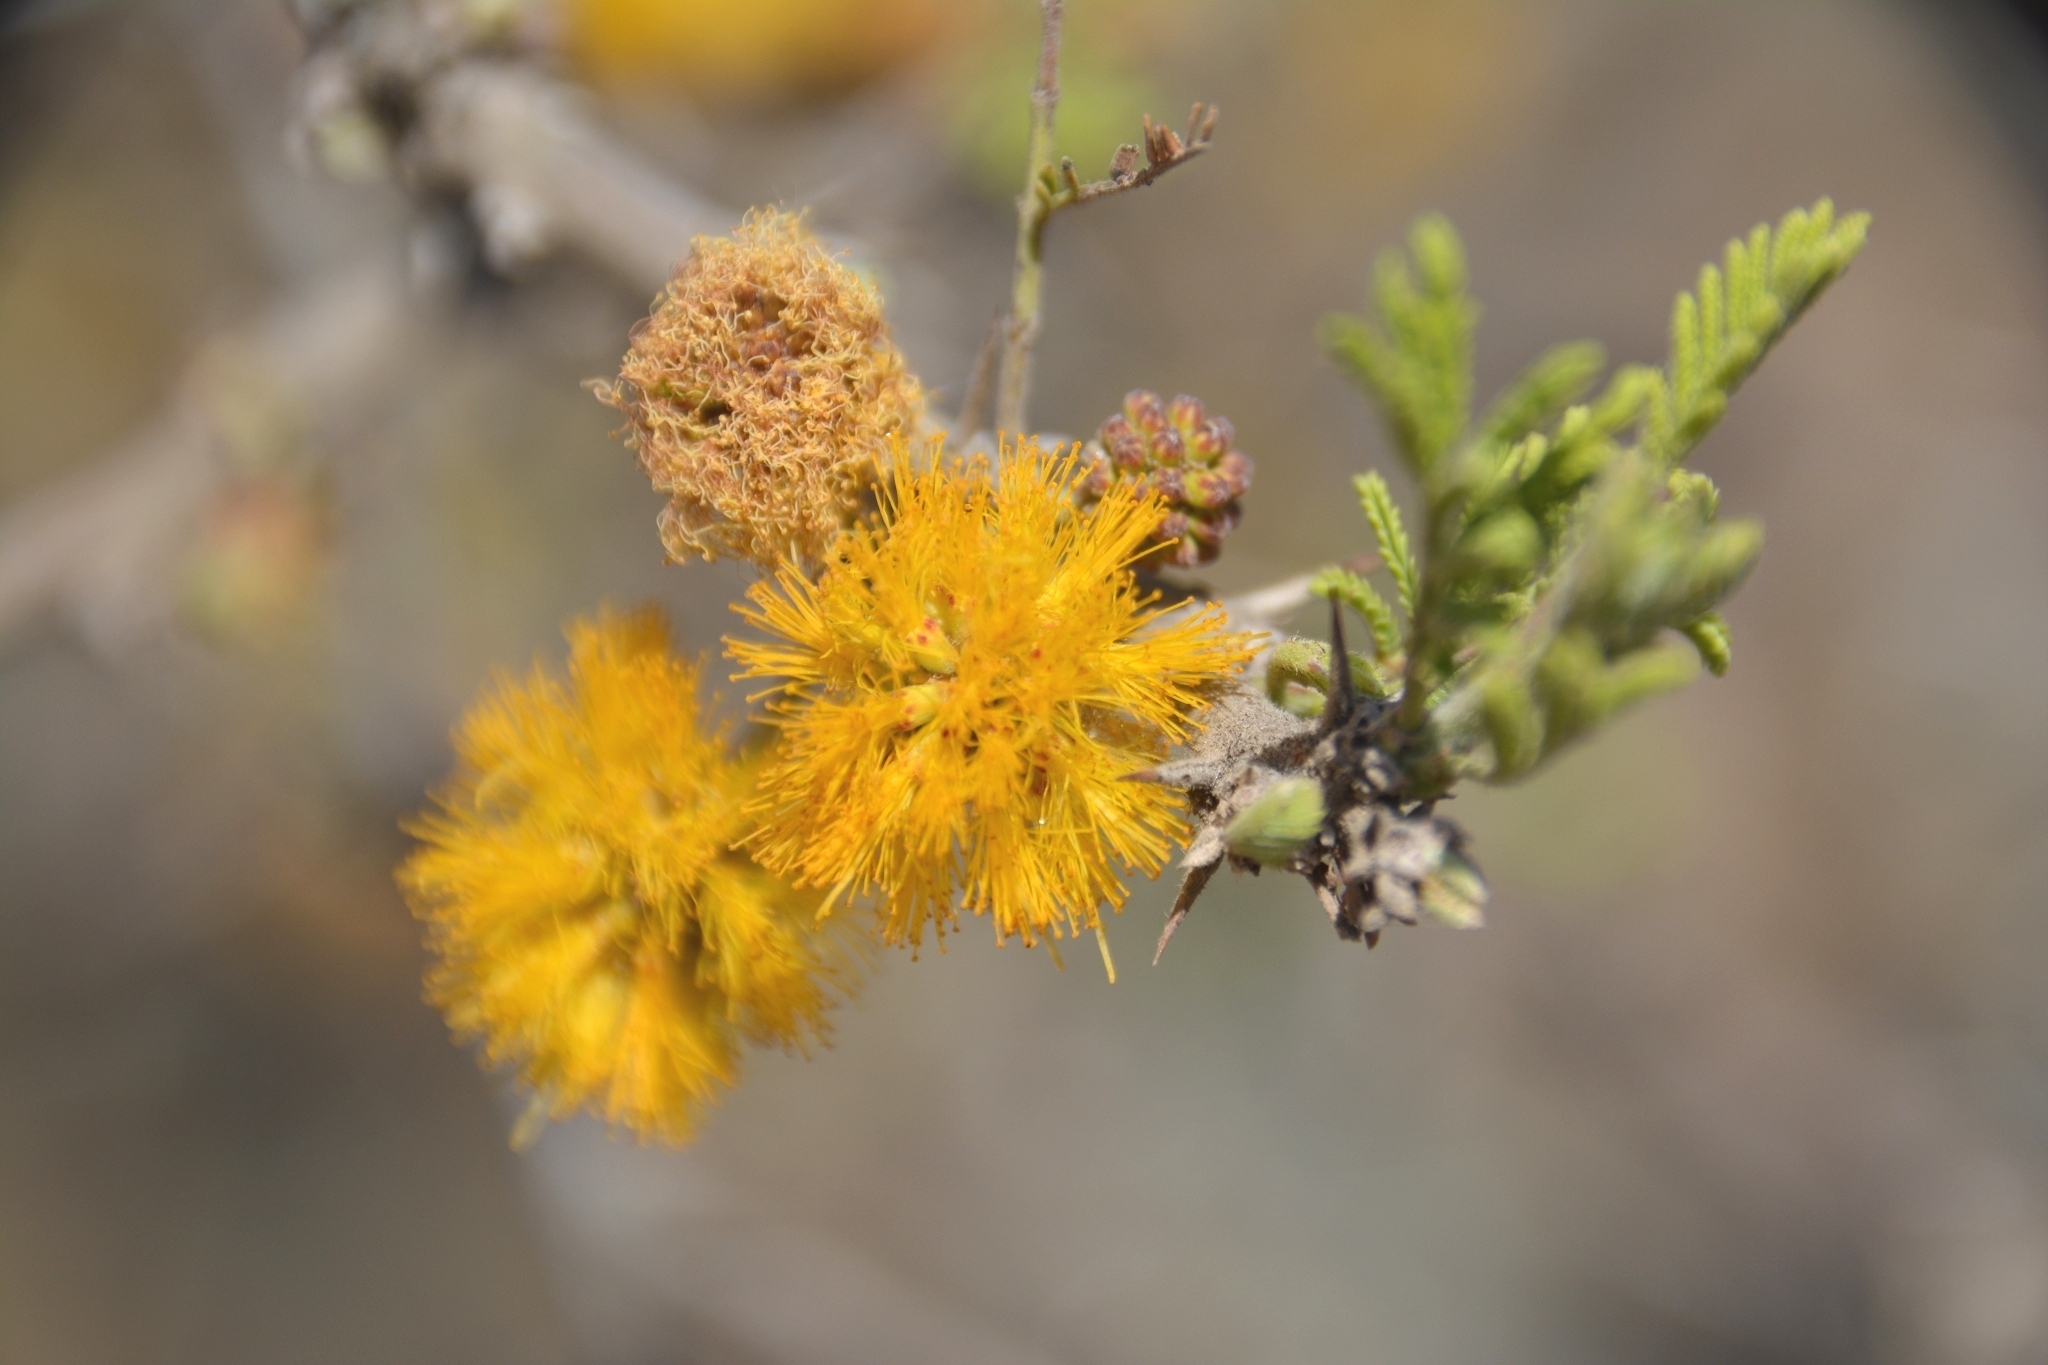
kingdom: Plantae
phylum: Tracheophyta
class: Magnoliopsida
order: Fabales
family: Fabaceae
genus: Vachellia
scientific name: Vachellia caven
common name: Roman cassie
